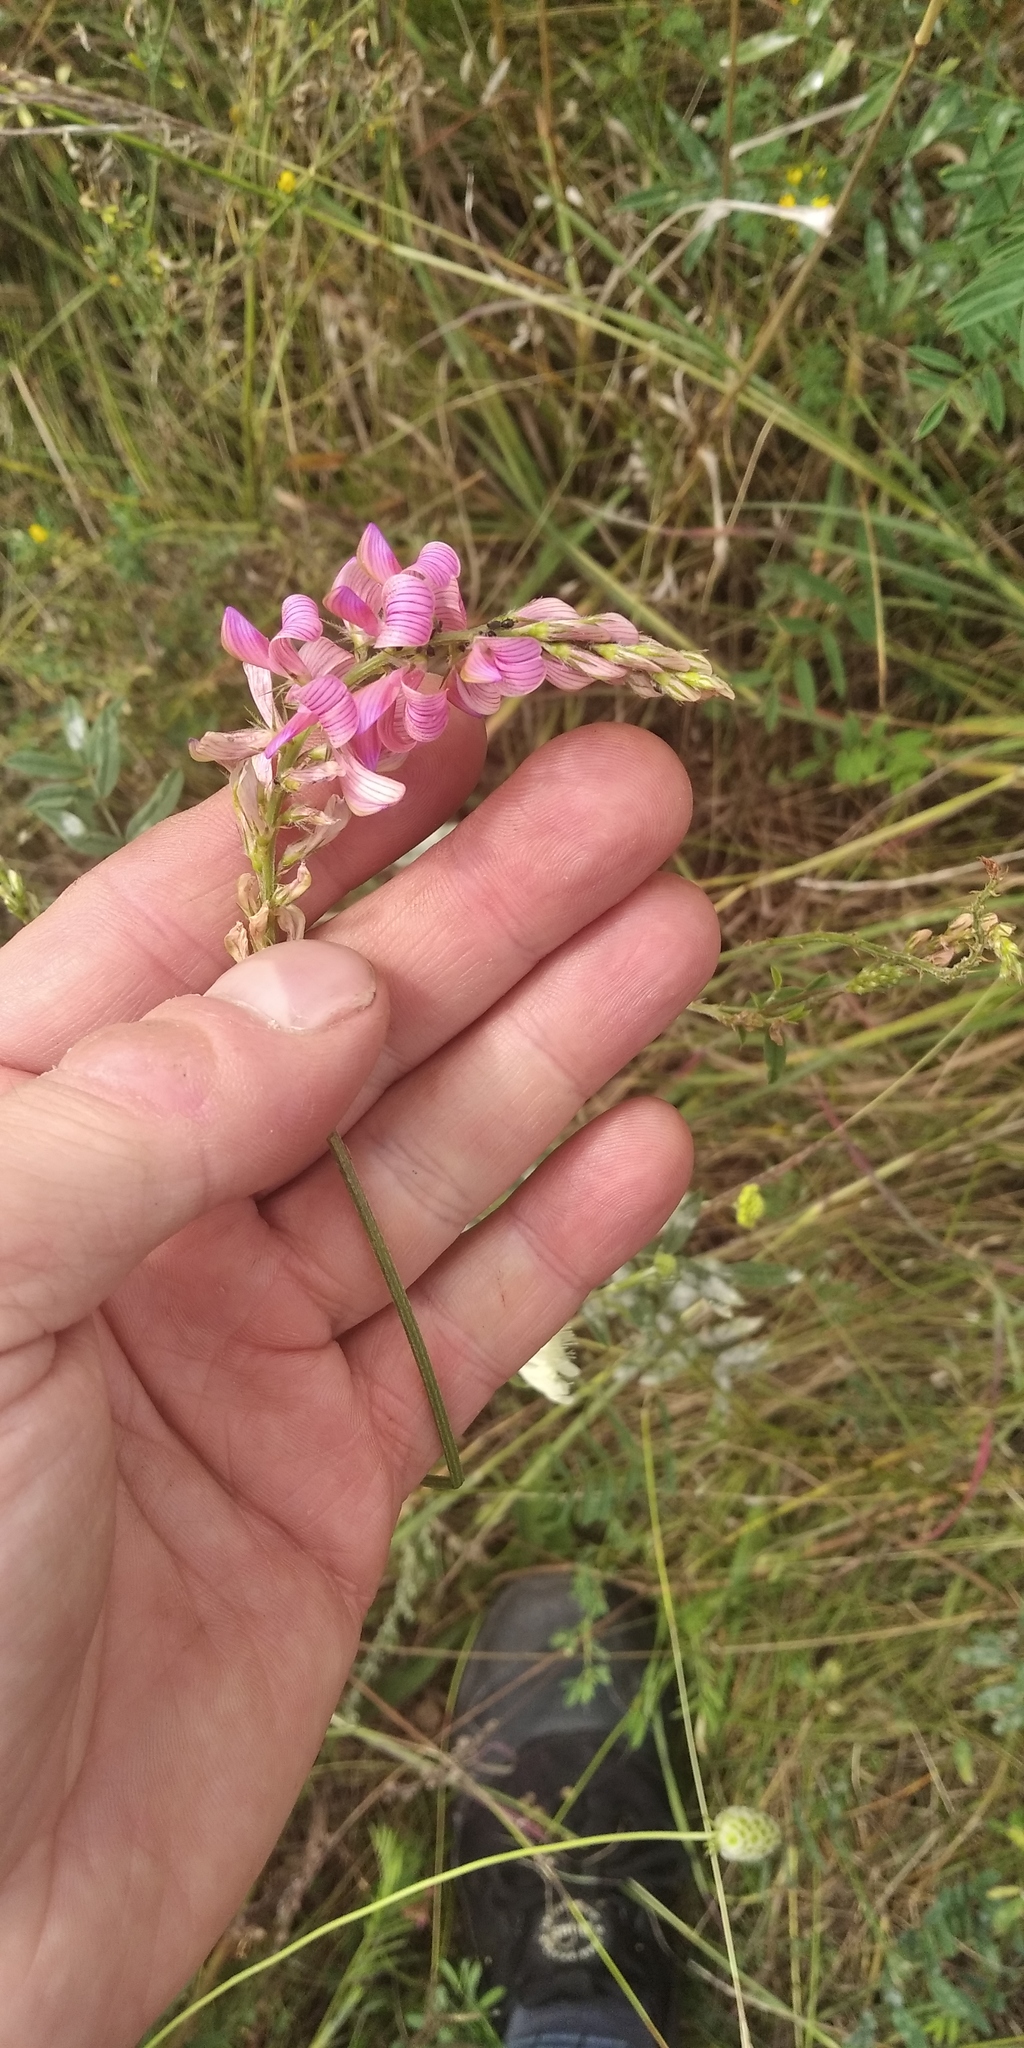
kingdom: Plantae
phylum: Tracheophyta
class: Magnoliopsida
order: Fabales
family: Fabaceae
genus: Onobrychis
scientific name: Onobrychis arenaria
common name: Sand esparcet
